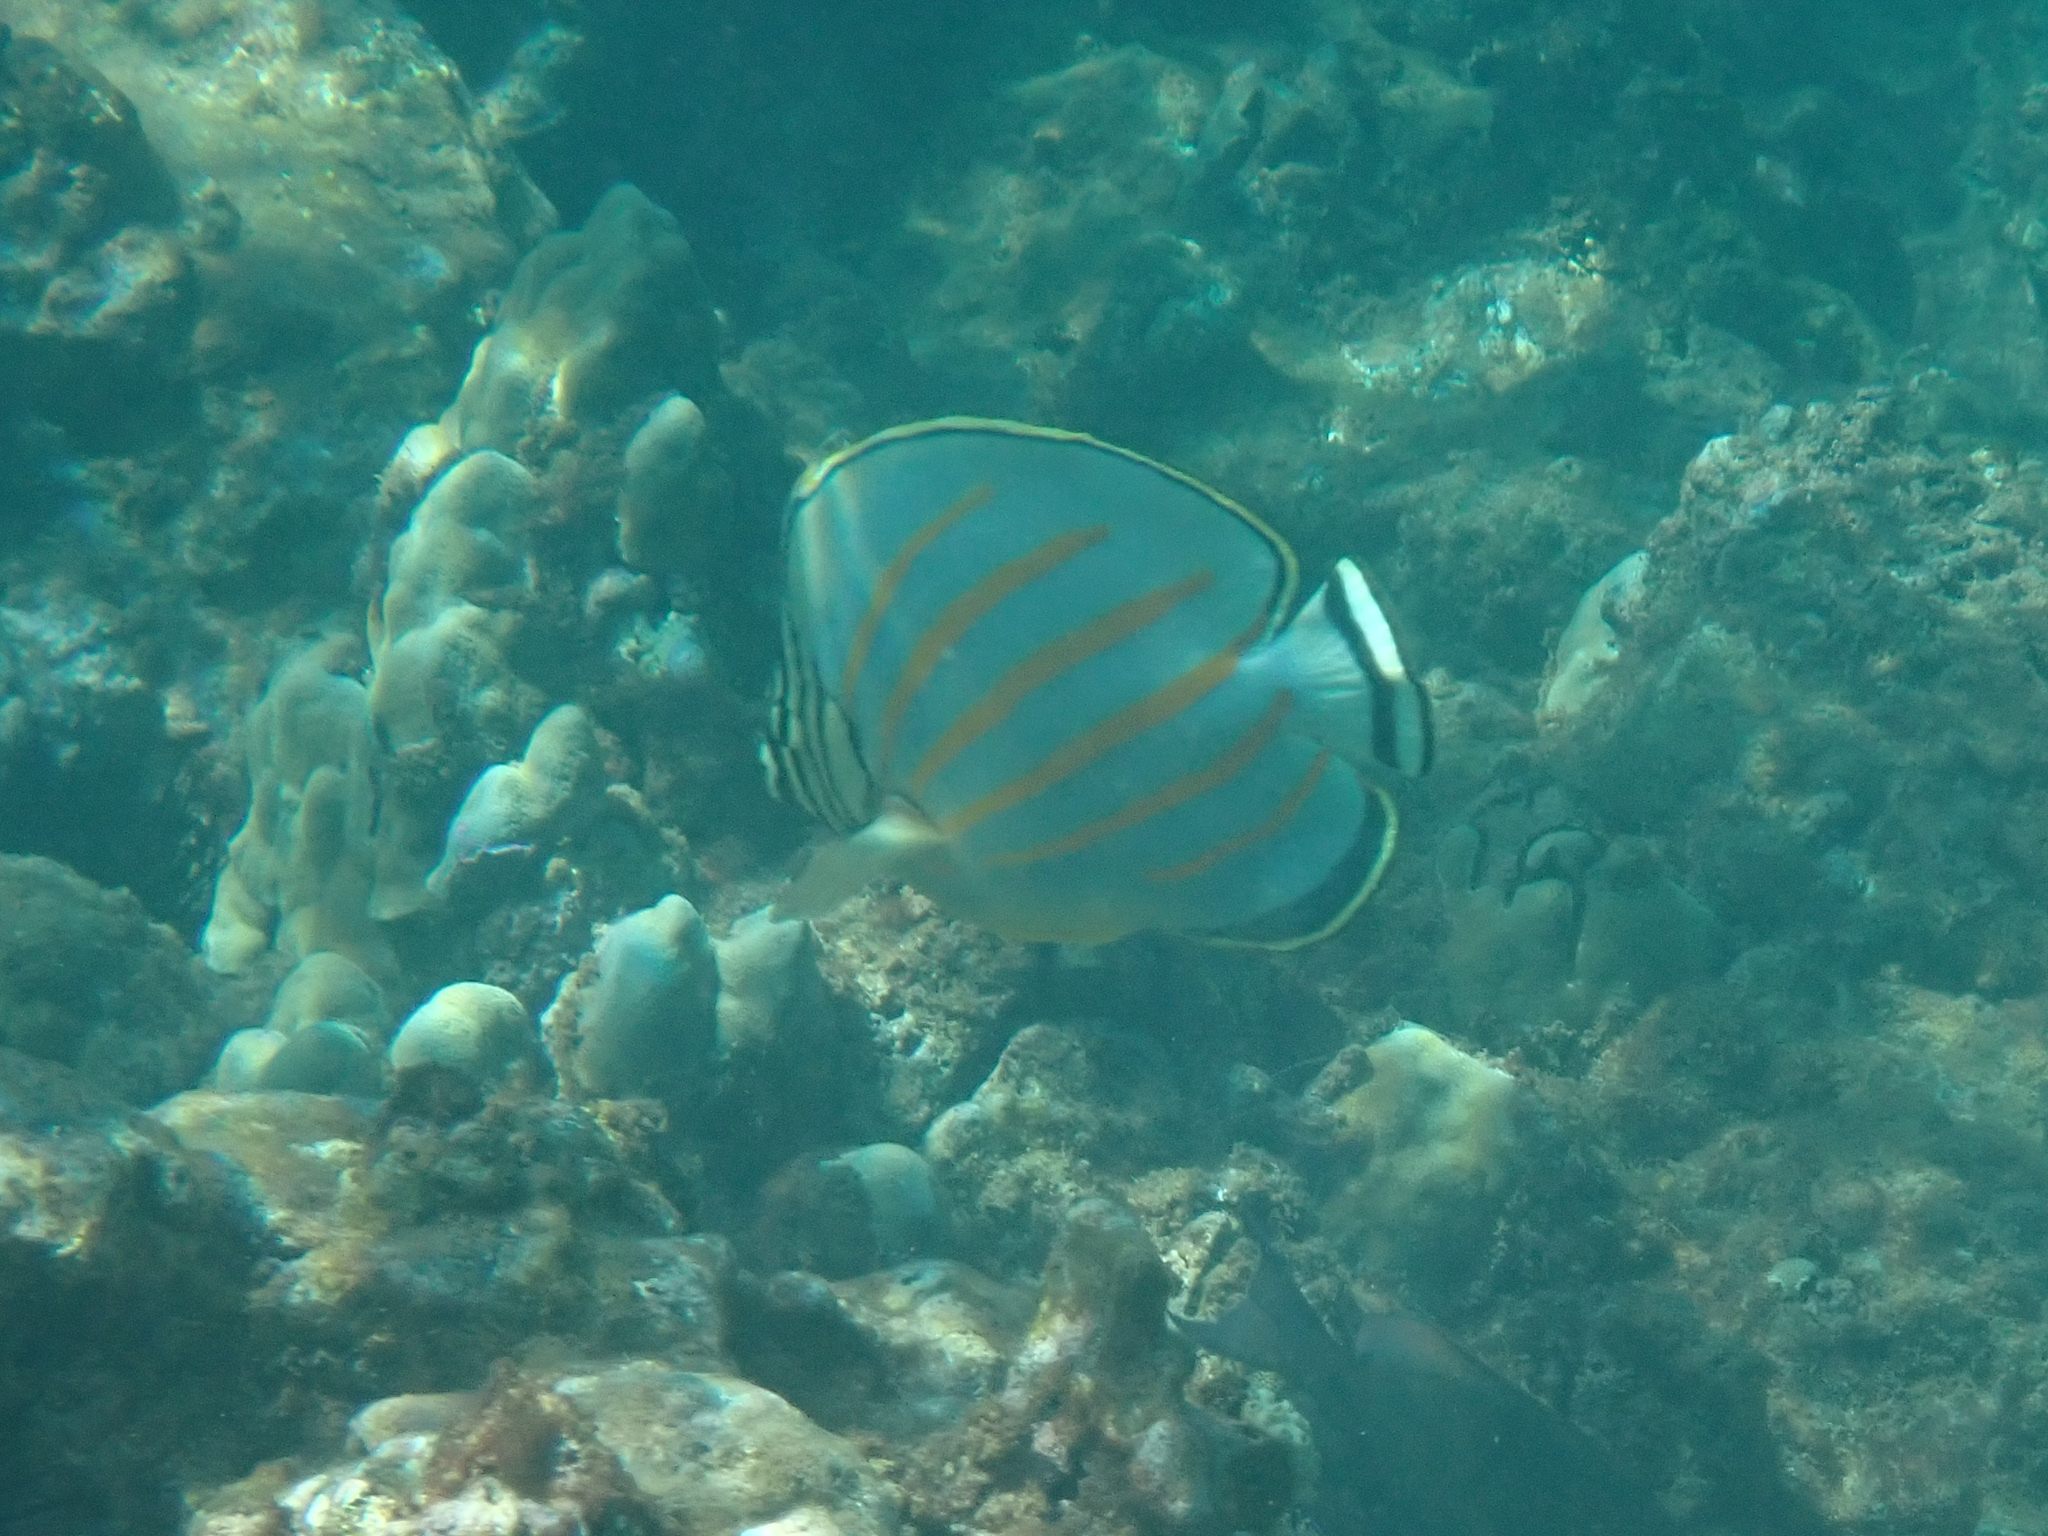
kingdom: Animalia
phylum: Chordata
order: Perciformes
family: Chaetodontidae
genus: Chaetodon
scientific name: Chaetodon ornatissimus
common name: Ornate butterflyfish
